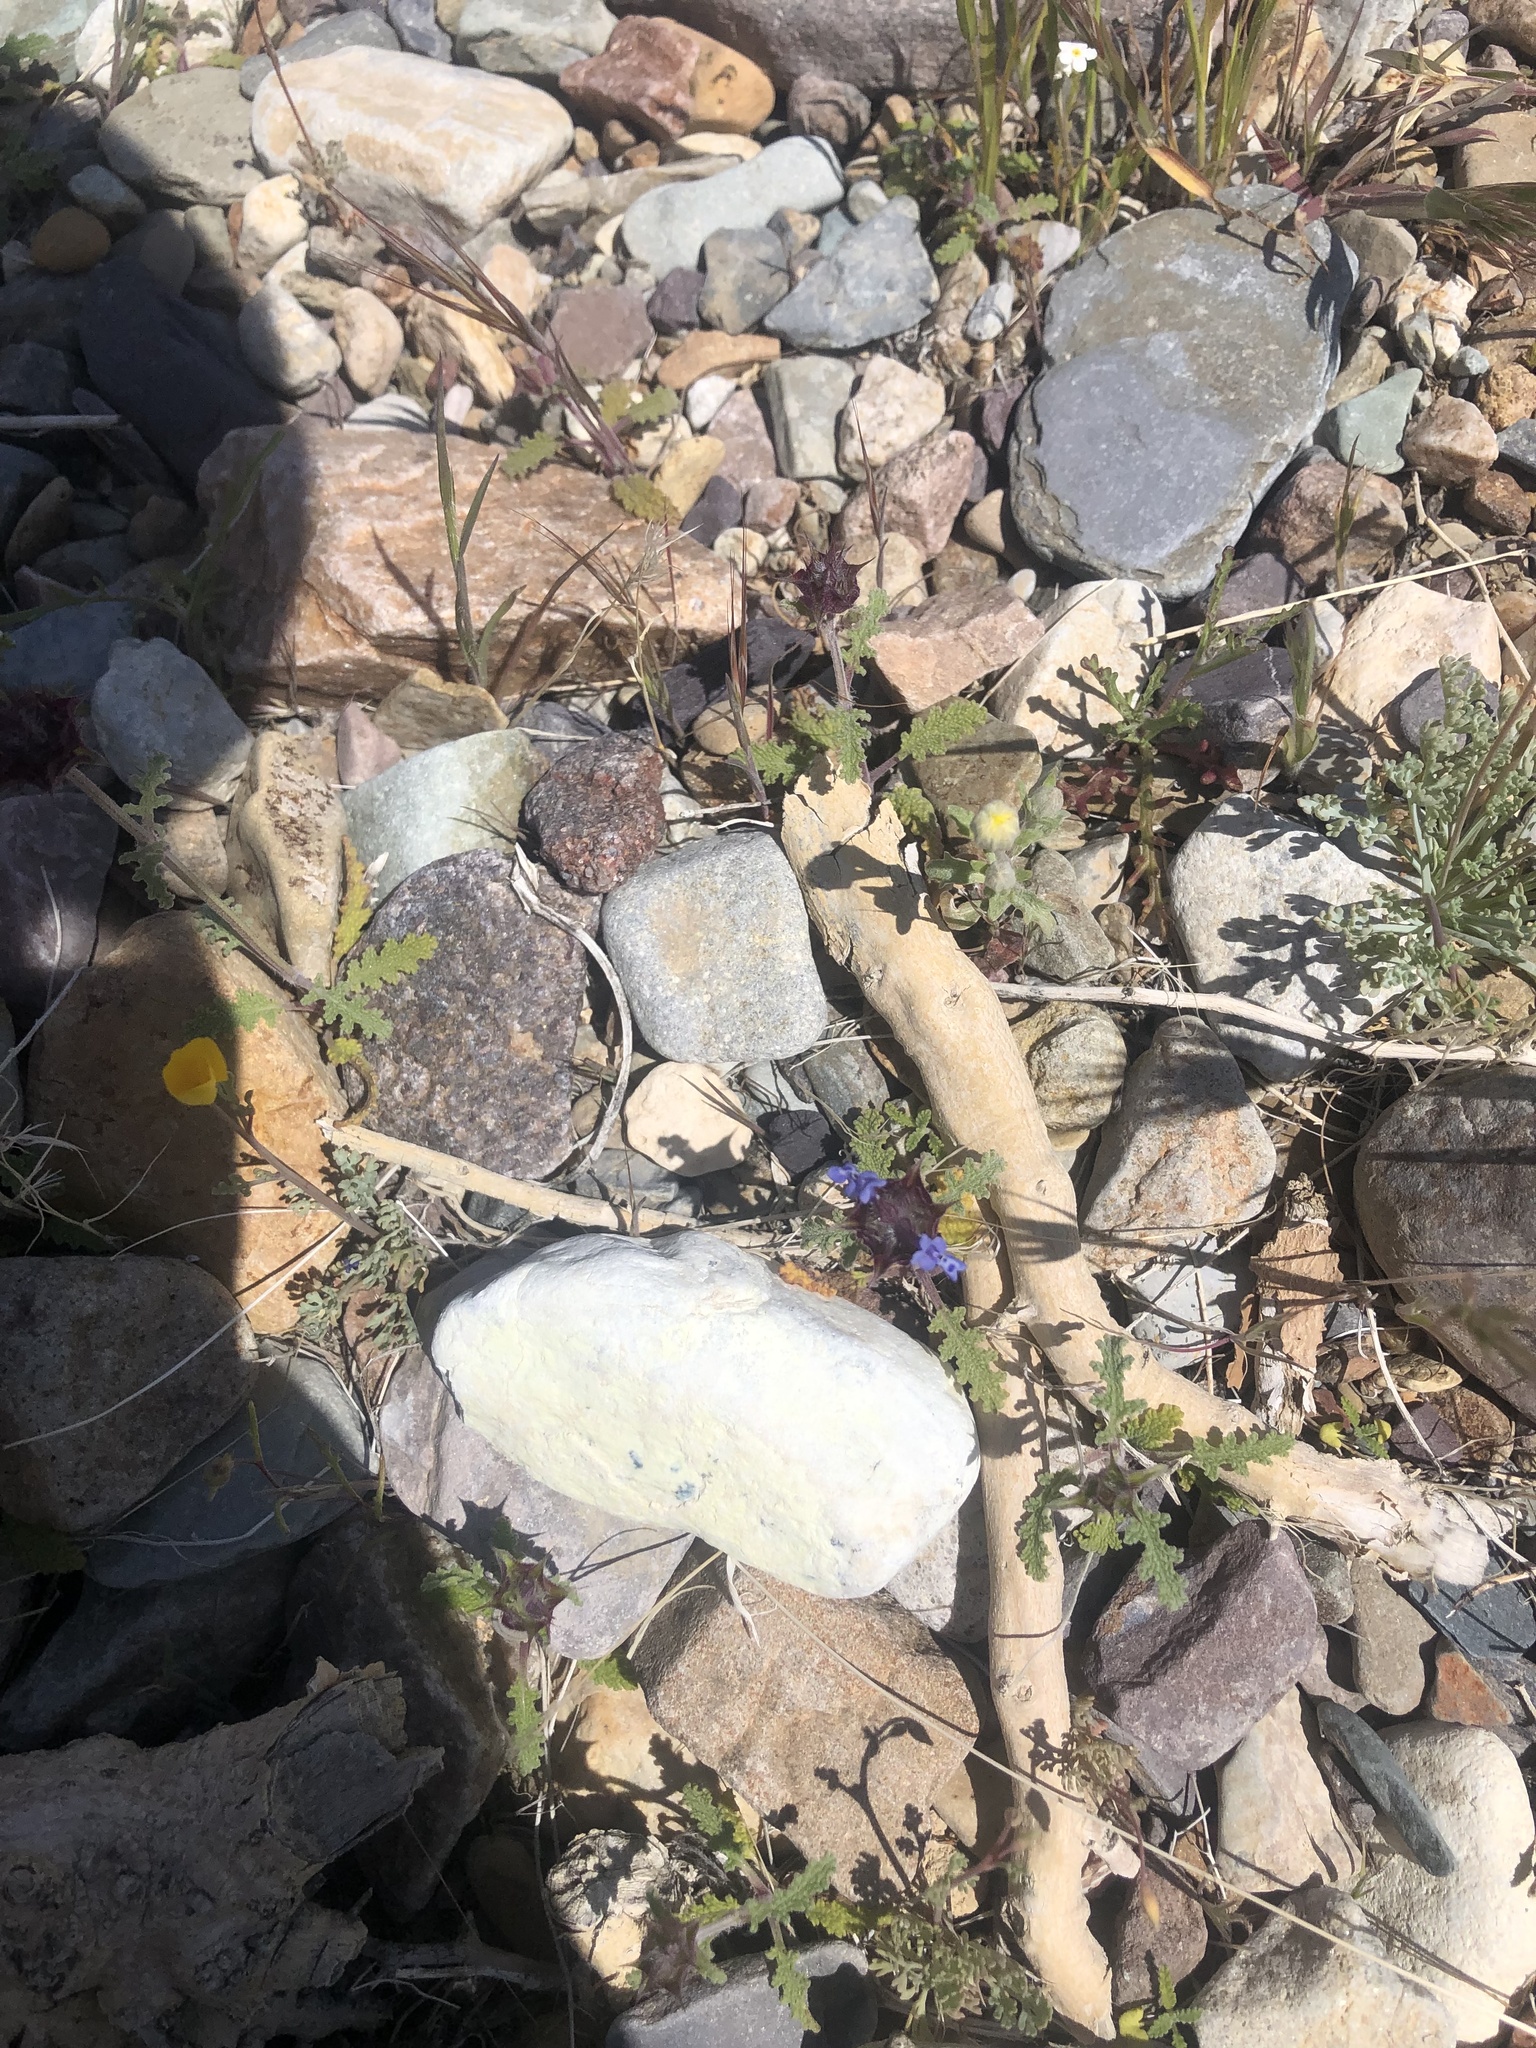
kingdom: Plantae
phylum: Tracheophyta
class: Magnoliopsida
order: Lamiales
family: Lamiaceae
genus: Salvia
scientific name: Salvia columbariae
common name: Chia
